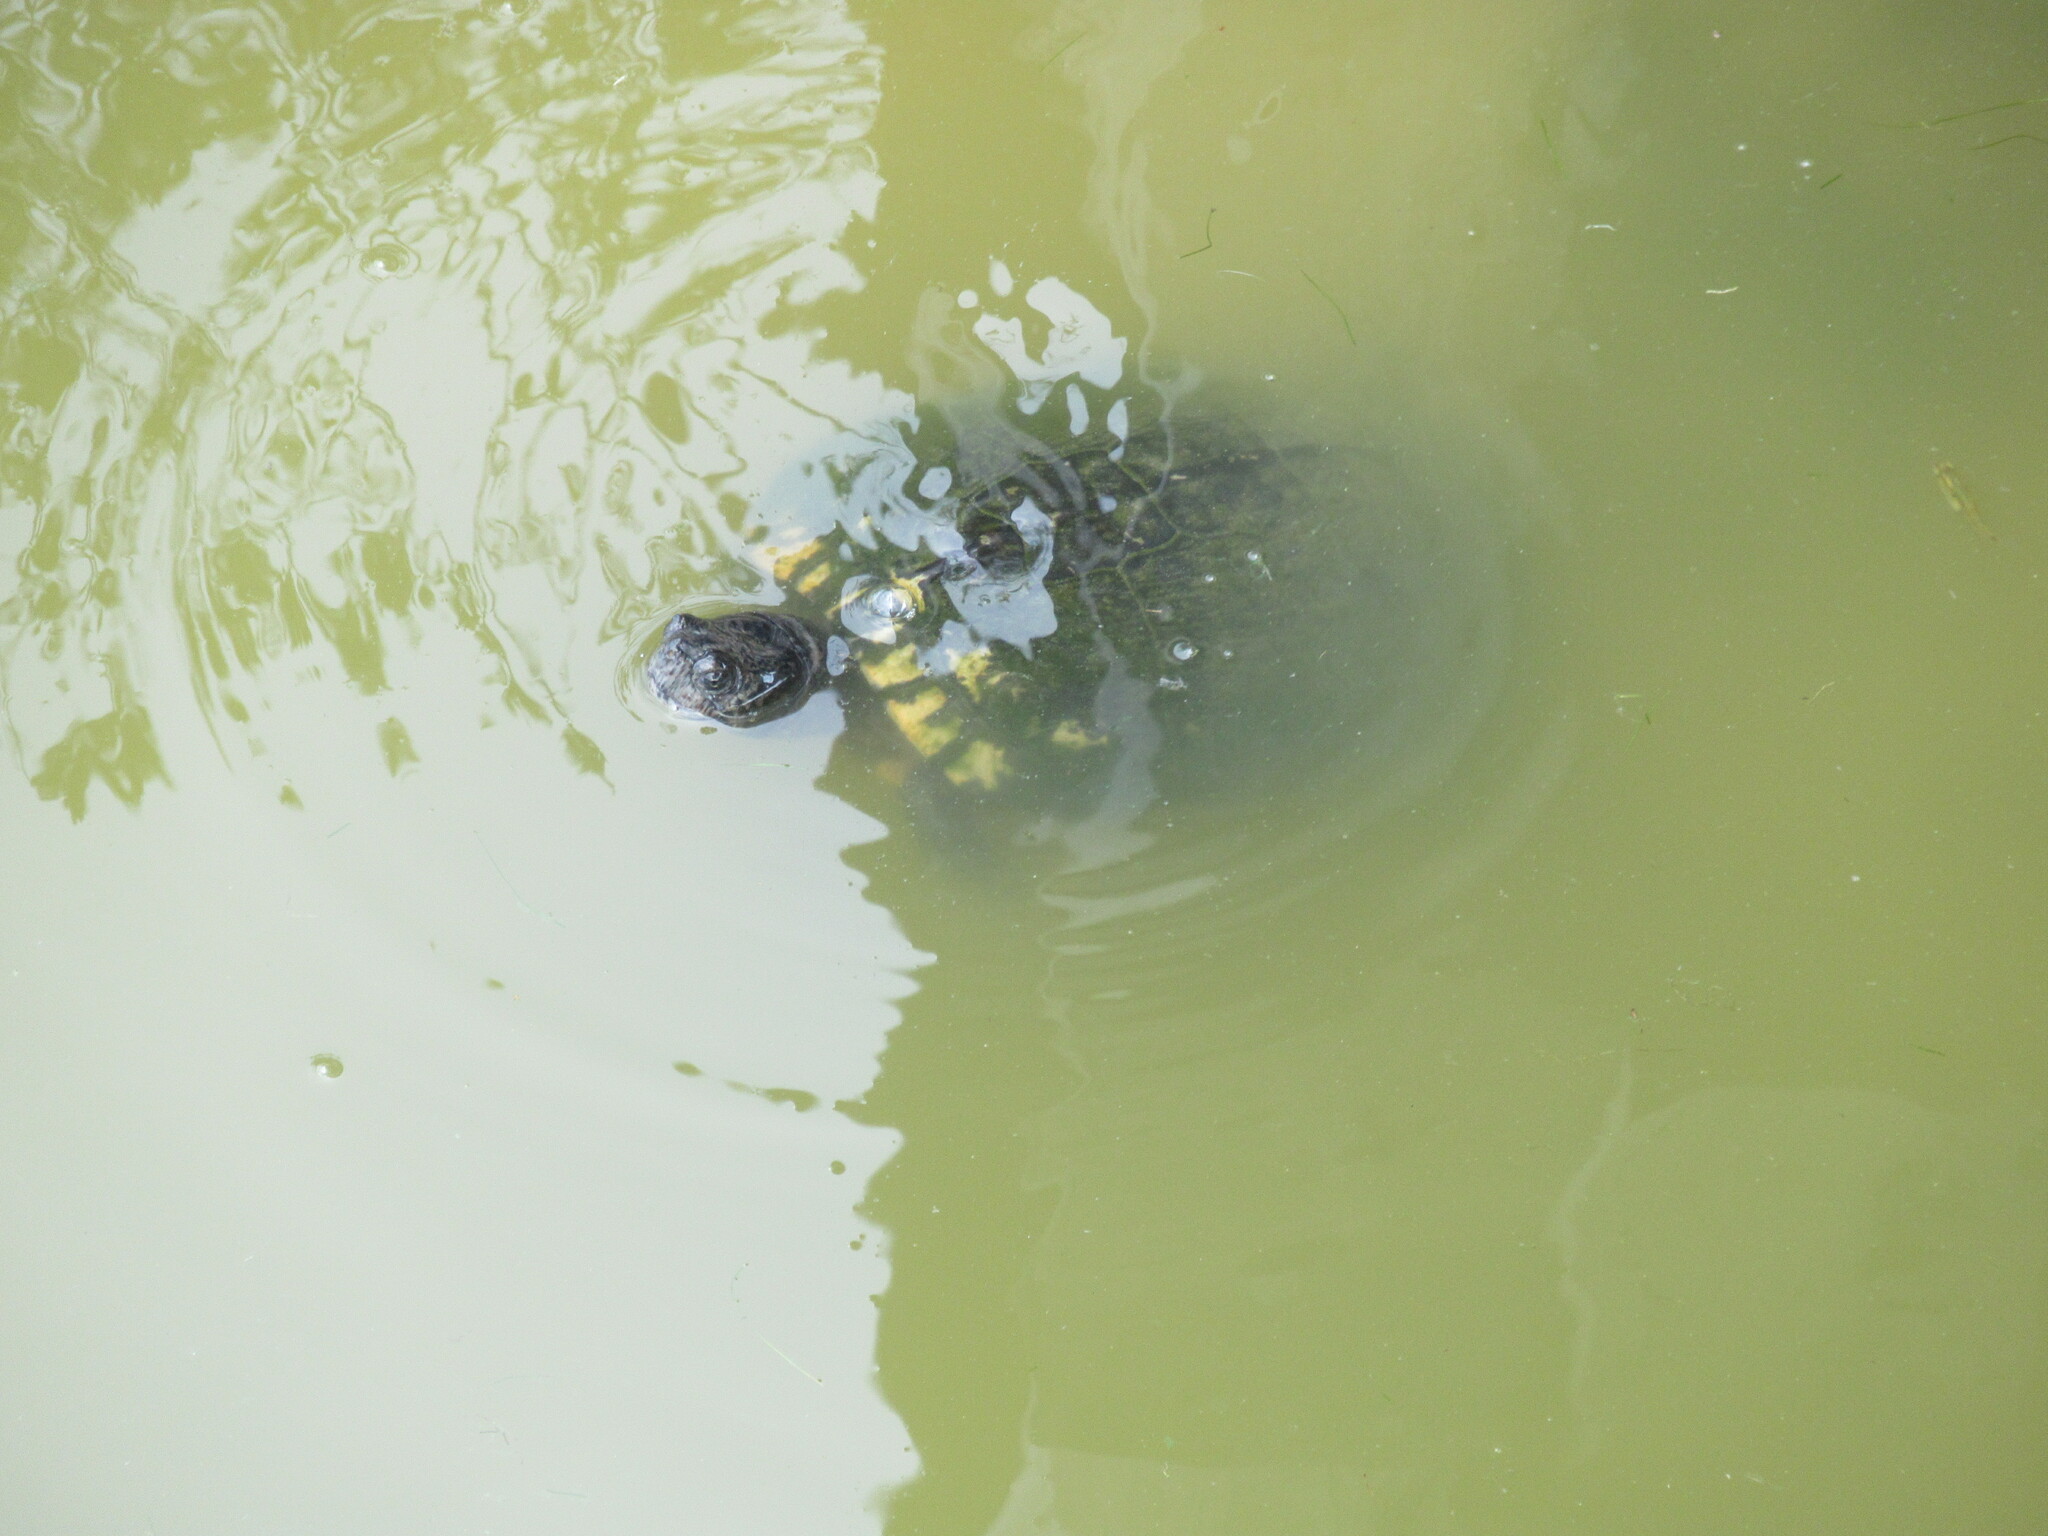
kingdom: Animalia
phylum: Chordata
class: Testudines
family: Emydidae
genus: Trachemys
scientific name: Trachemys scripta
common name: Slider
